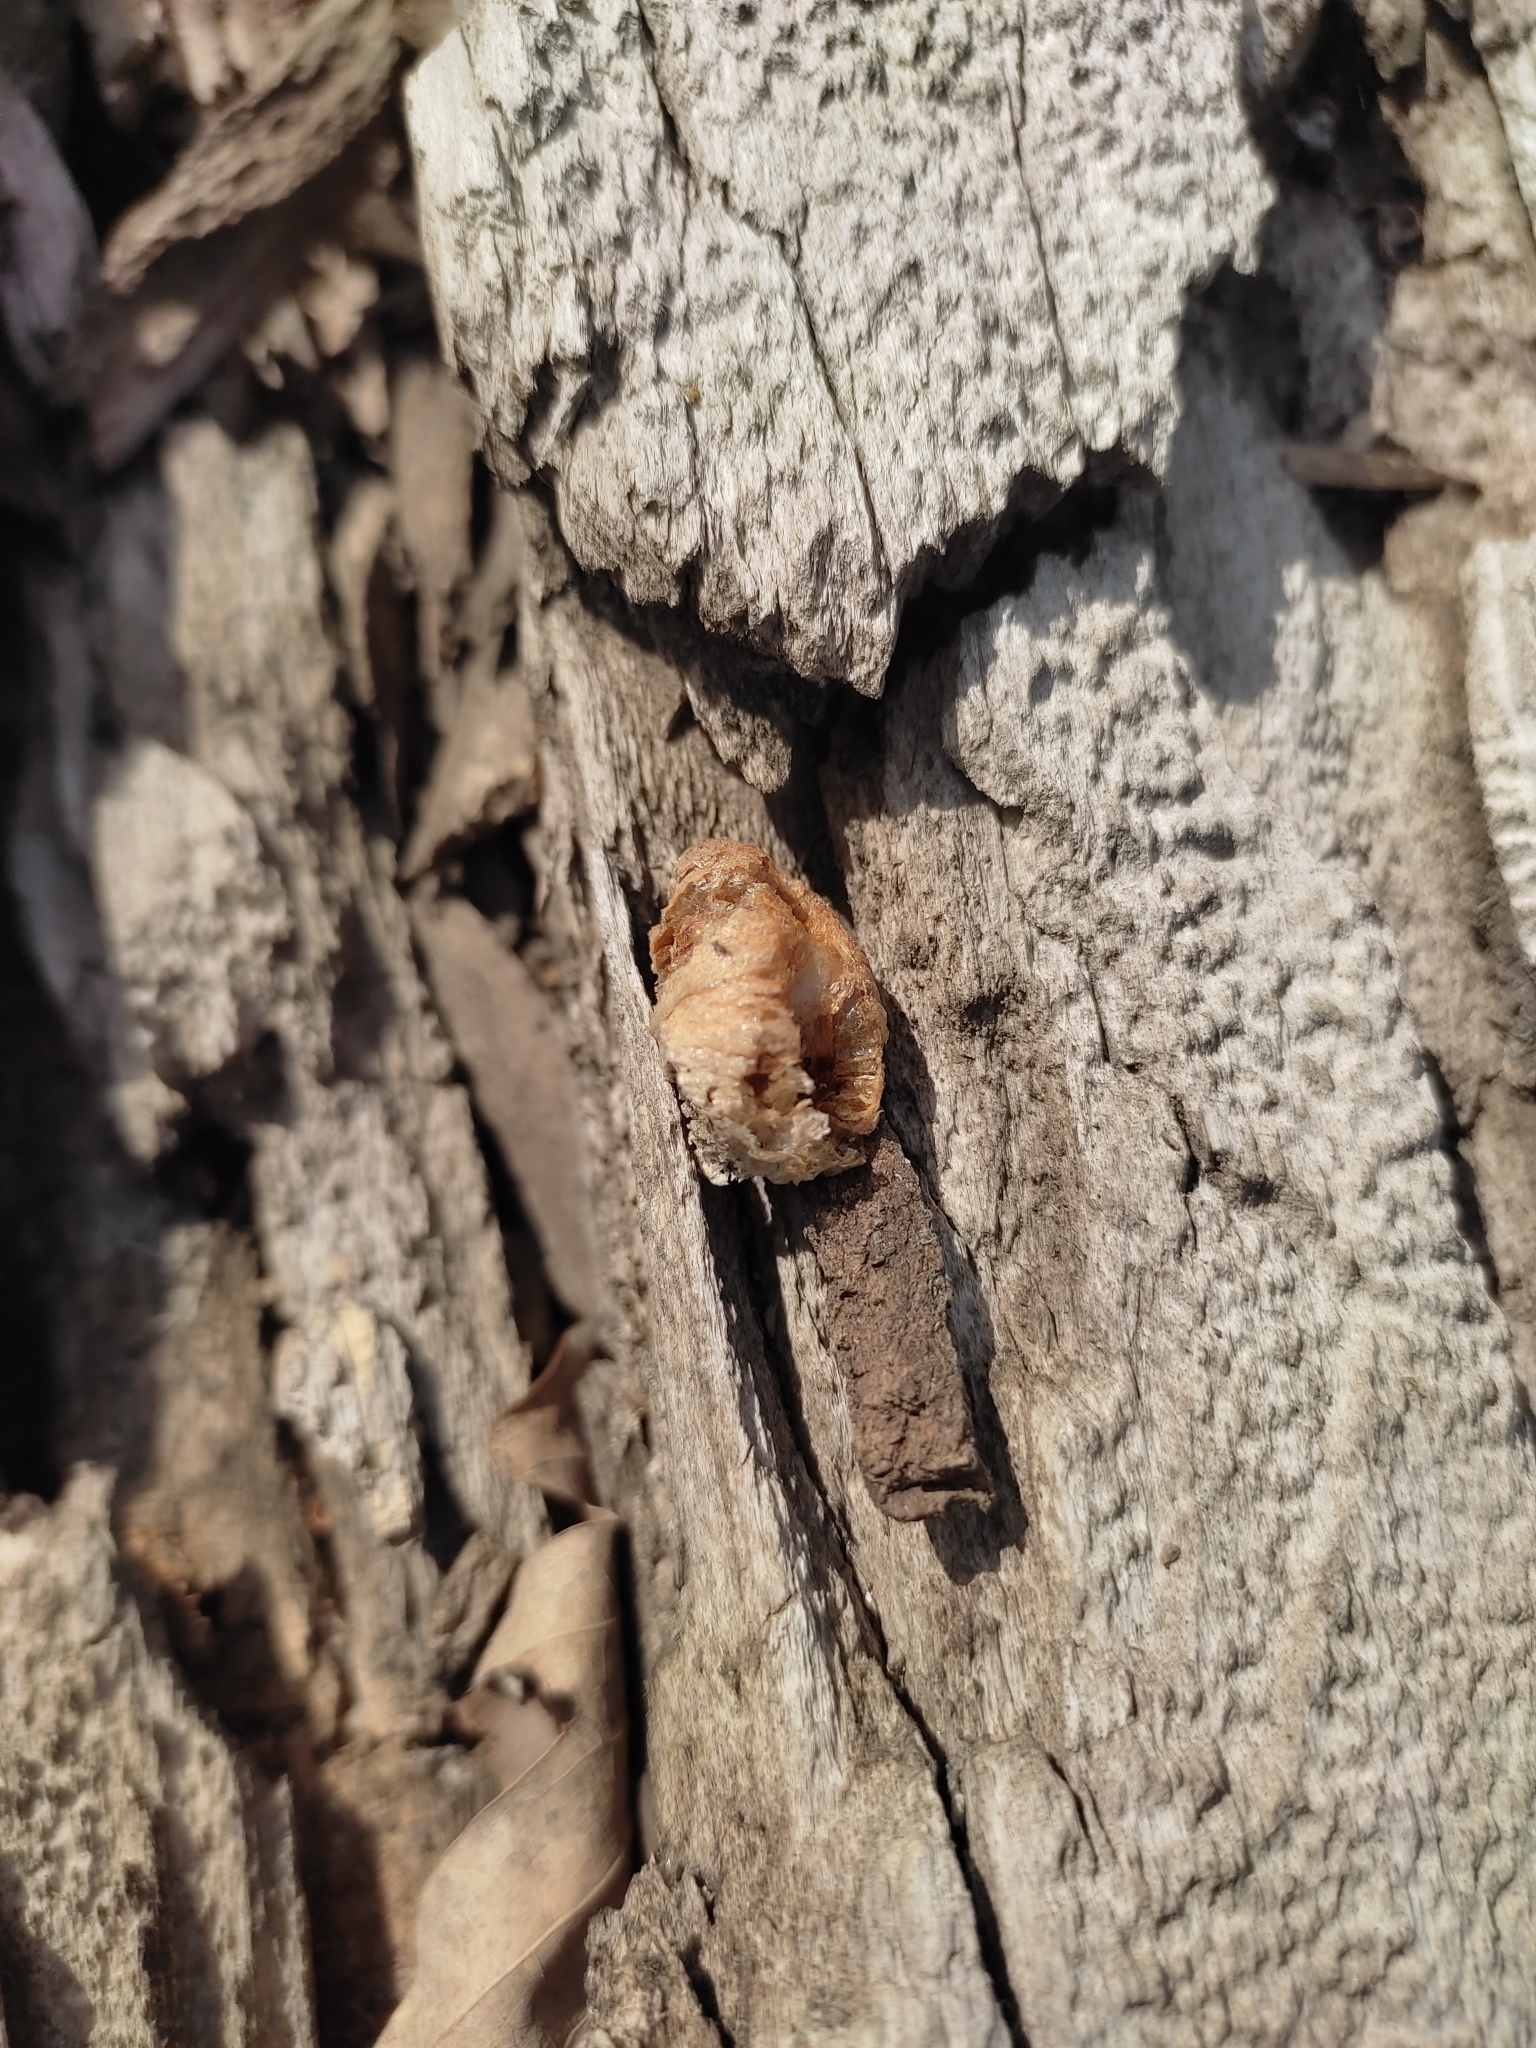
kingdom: Animalia
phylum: Arthropoda
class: Insecta
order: Mantodea
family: Mantidae
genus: Mantis
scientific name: Mantis religiosa
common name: Praying mantis
